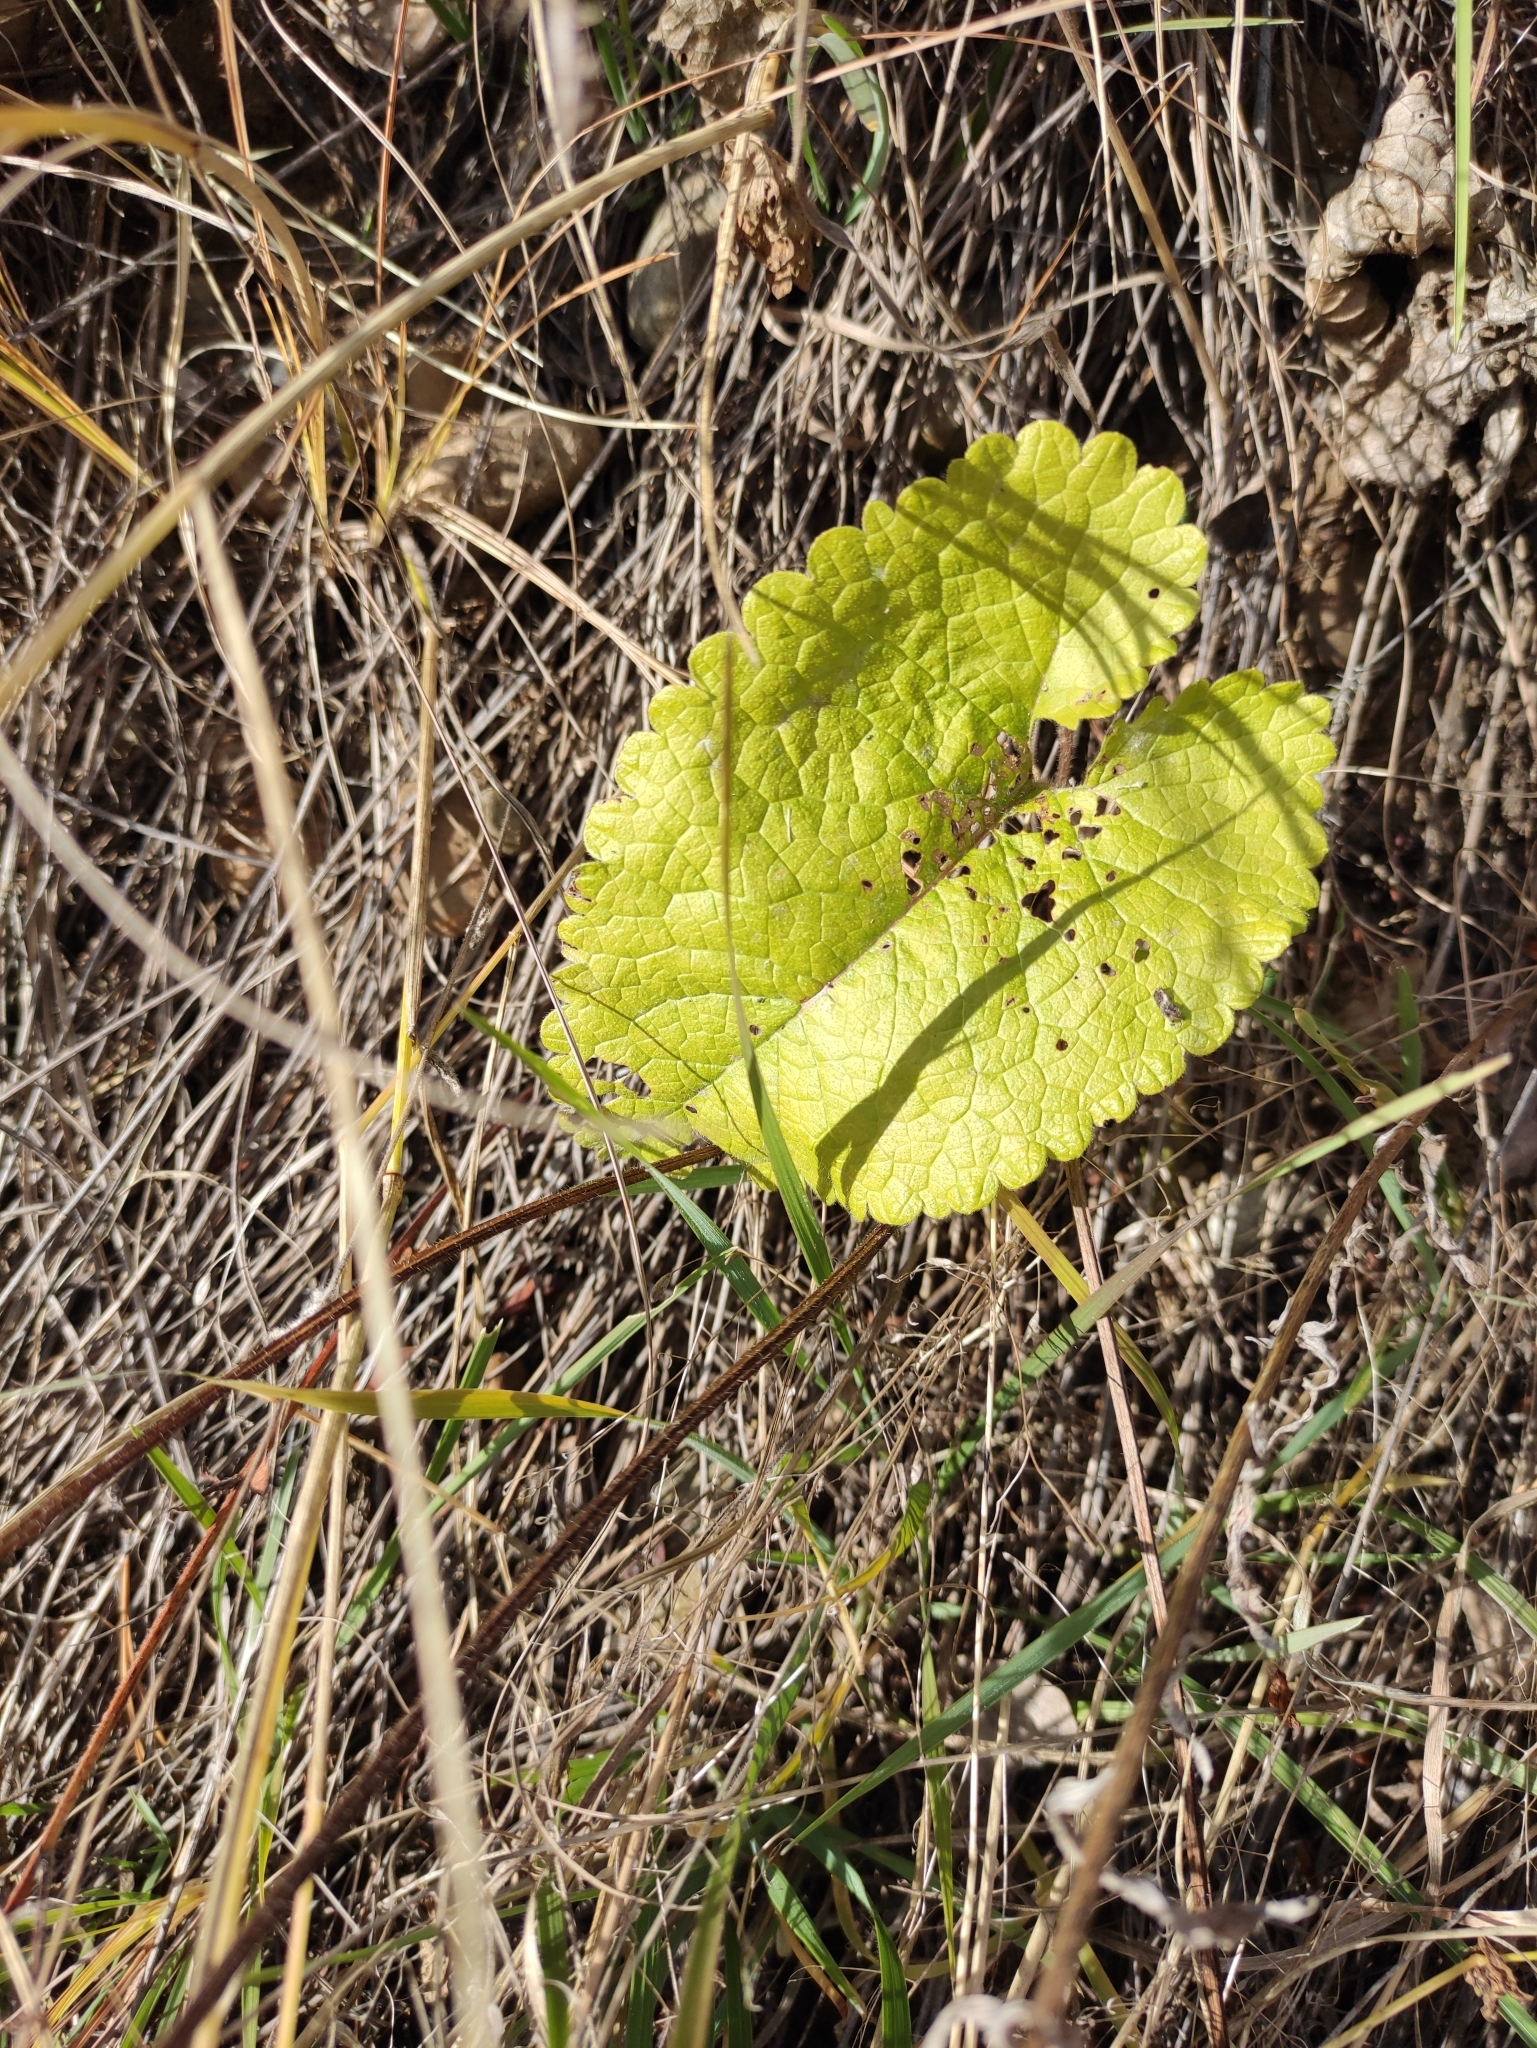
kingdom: Plantae
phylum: Tracheophyta
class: Magnoliopsida
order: Lamiales
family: Lamiaceae
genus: Phlomoides
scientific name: Phlomoides tuberosa
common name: Tuberous jerusalem sage
